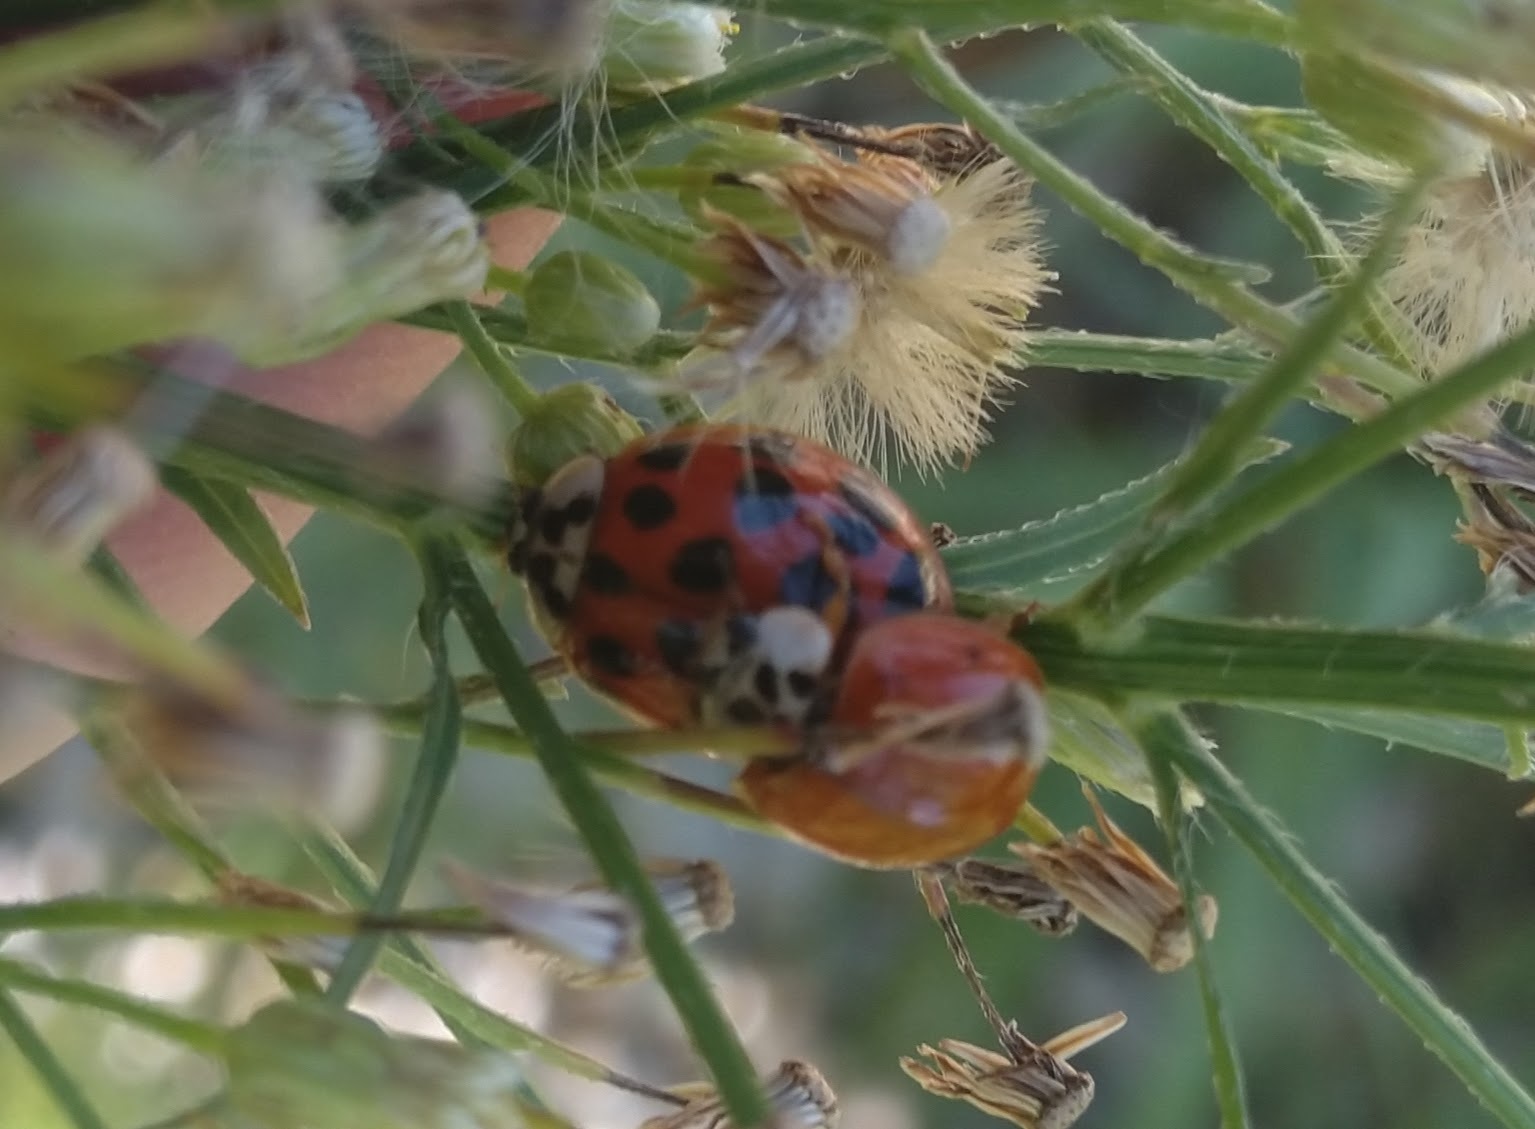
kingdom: Animalia
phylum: Arthropoda
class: Insecta
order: Coleoptera
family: Coccinellidae
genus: Harmonia
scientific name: Harmonia axyridis
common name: Harlequin ladybird
